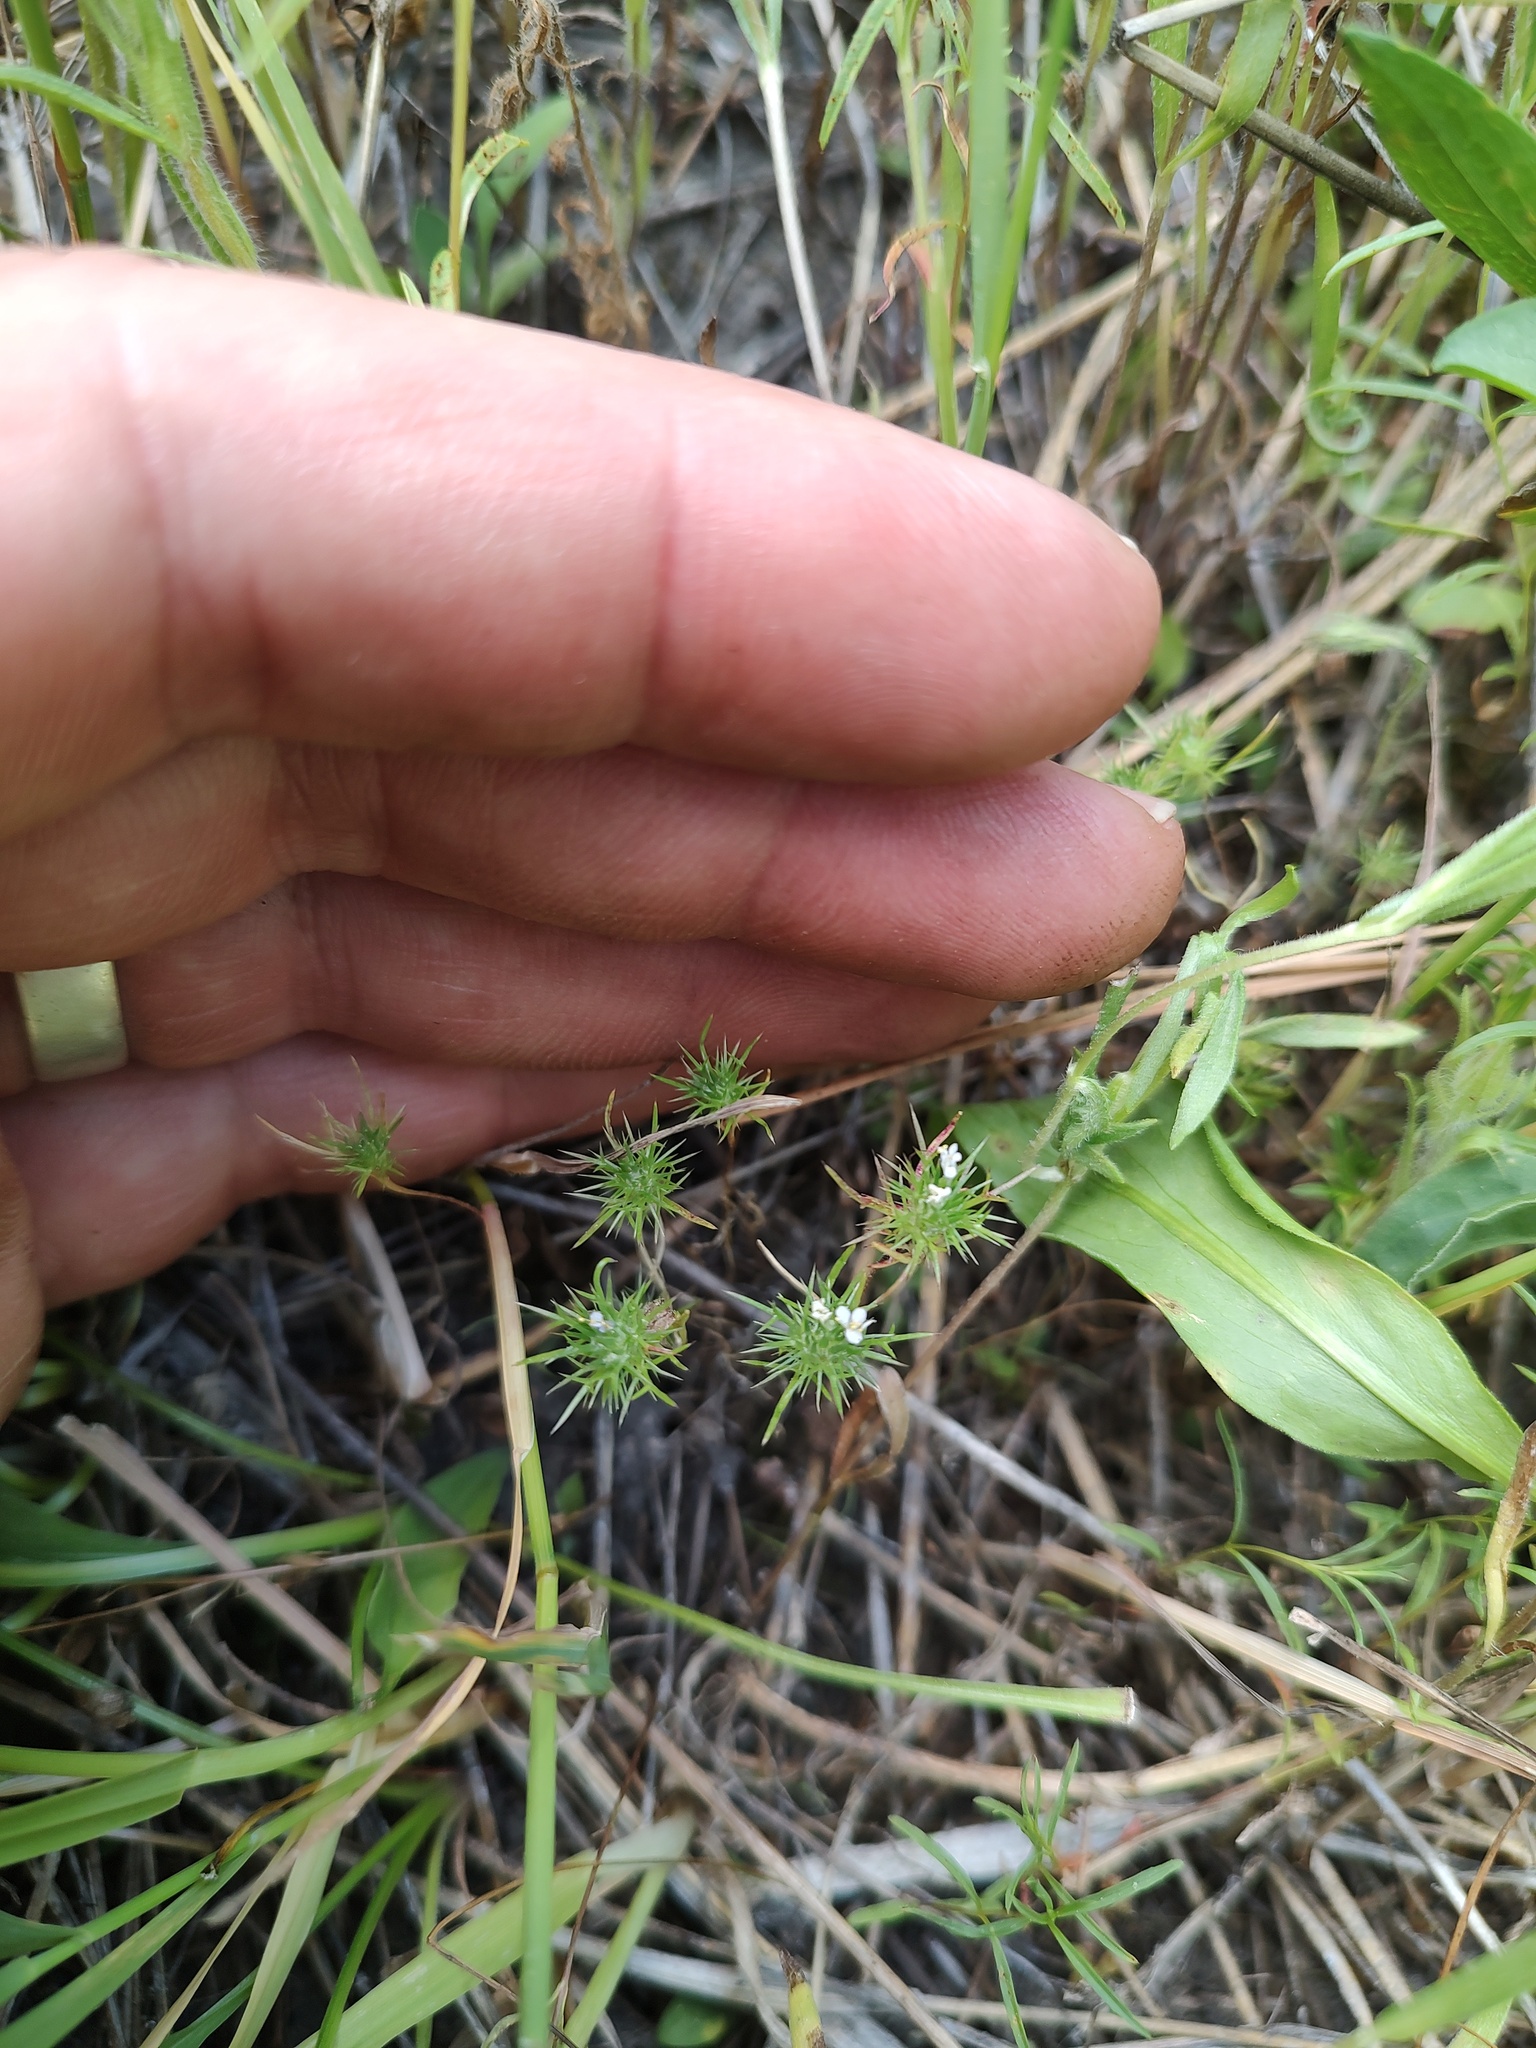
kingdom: Plantae
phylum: Tracheophyta
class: Magnoliopsida
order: Ericales
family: Polemoniaceae
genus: Navarretia
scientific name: Navarretia intertexta
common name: Needle-leaved navarretia
